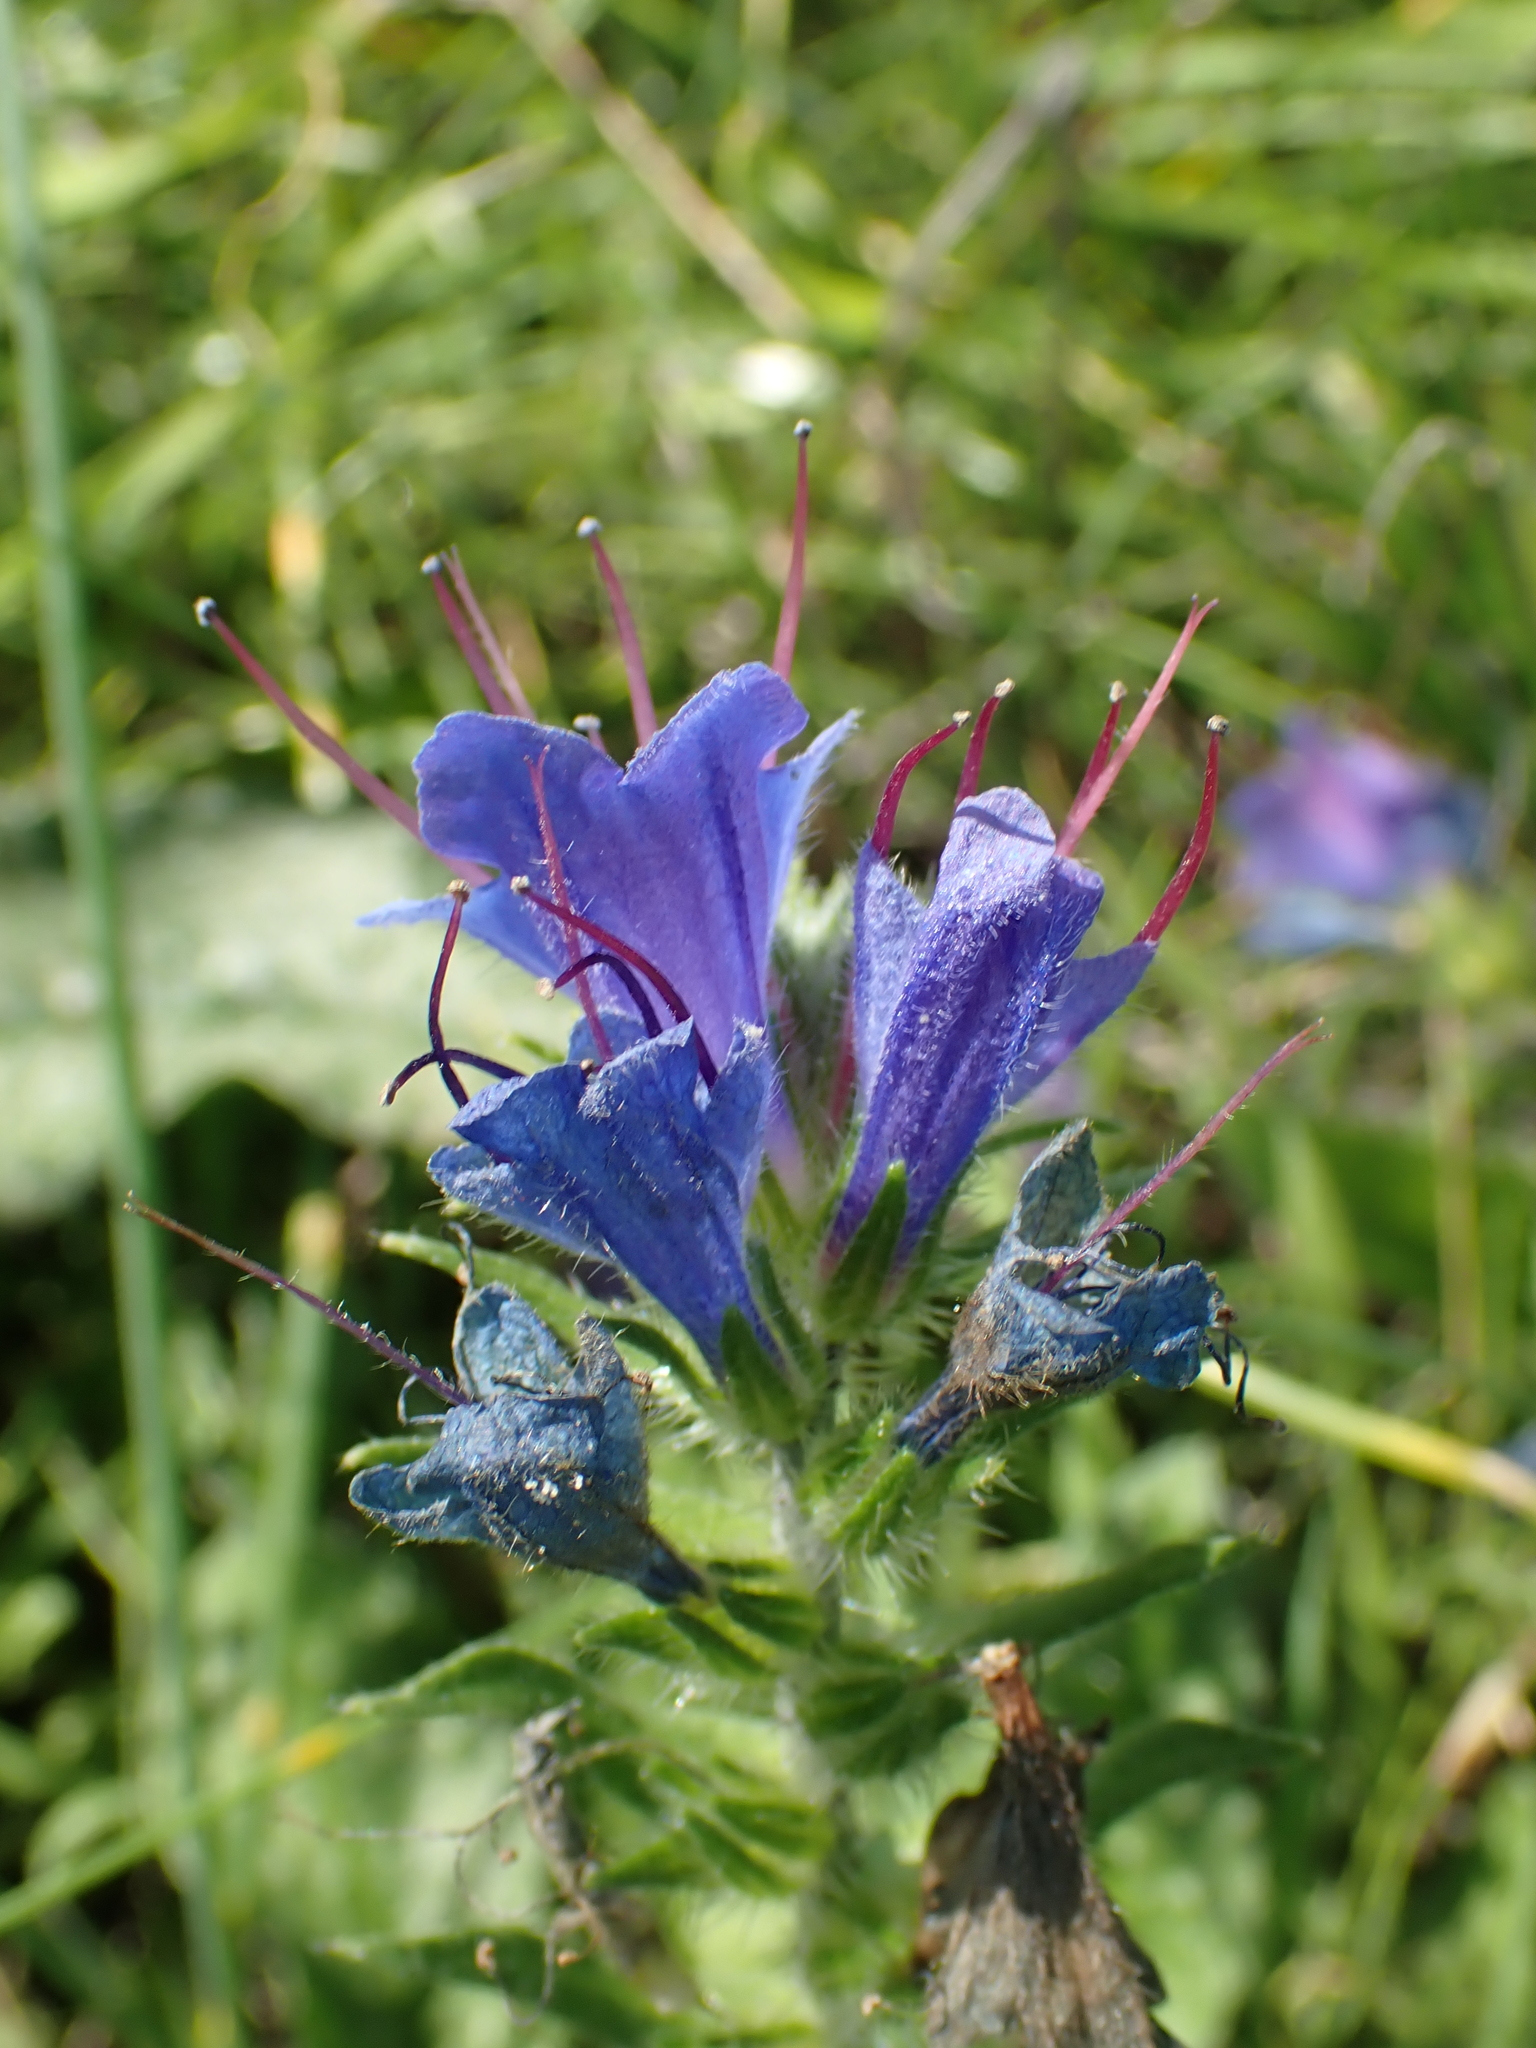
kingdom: Plantae
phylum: Tracheophyta
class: Magnoliopsida
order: Boraginales
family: Boraginaceae
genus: Echium
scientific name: Echium vulgare
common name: Common viper's bugloss
